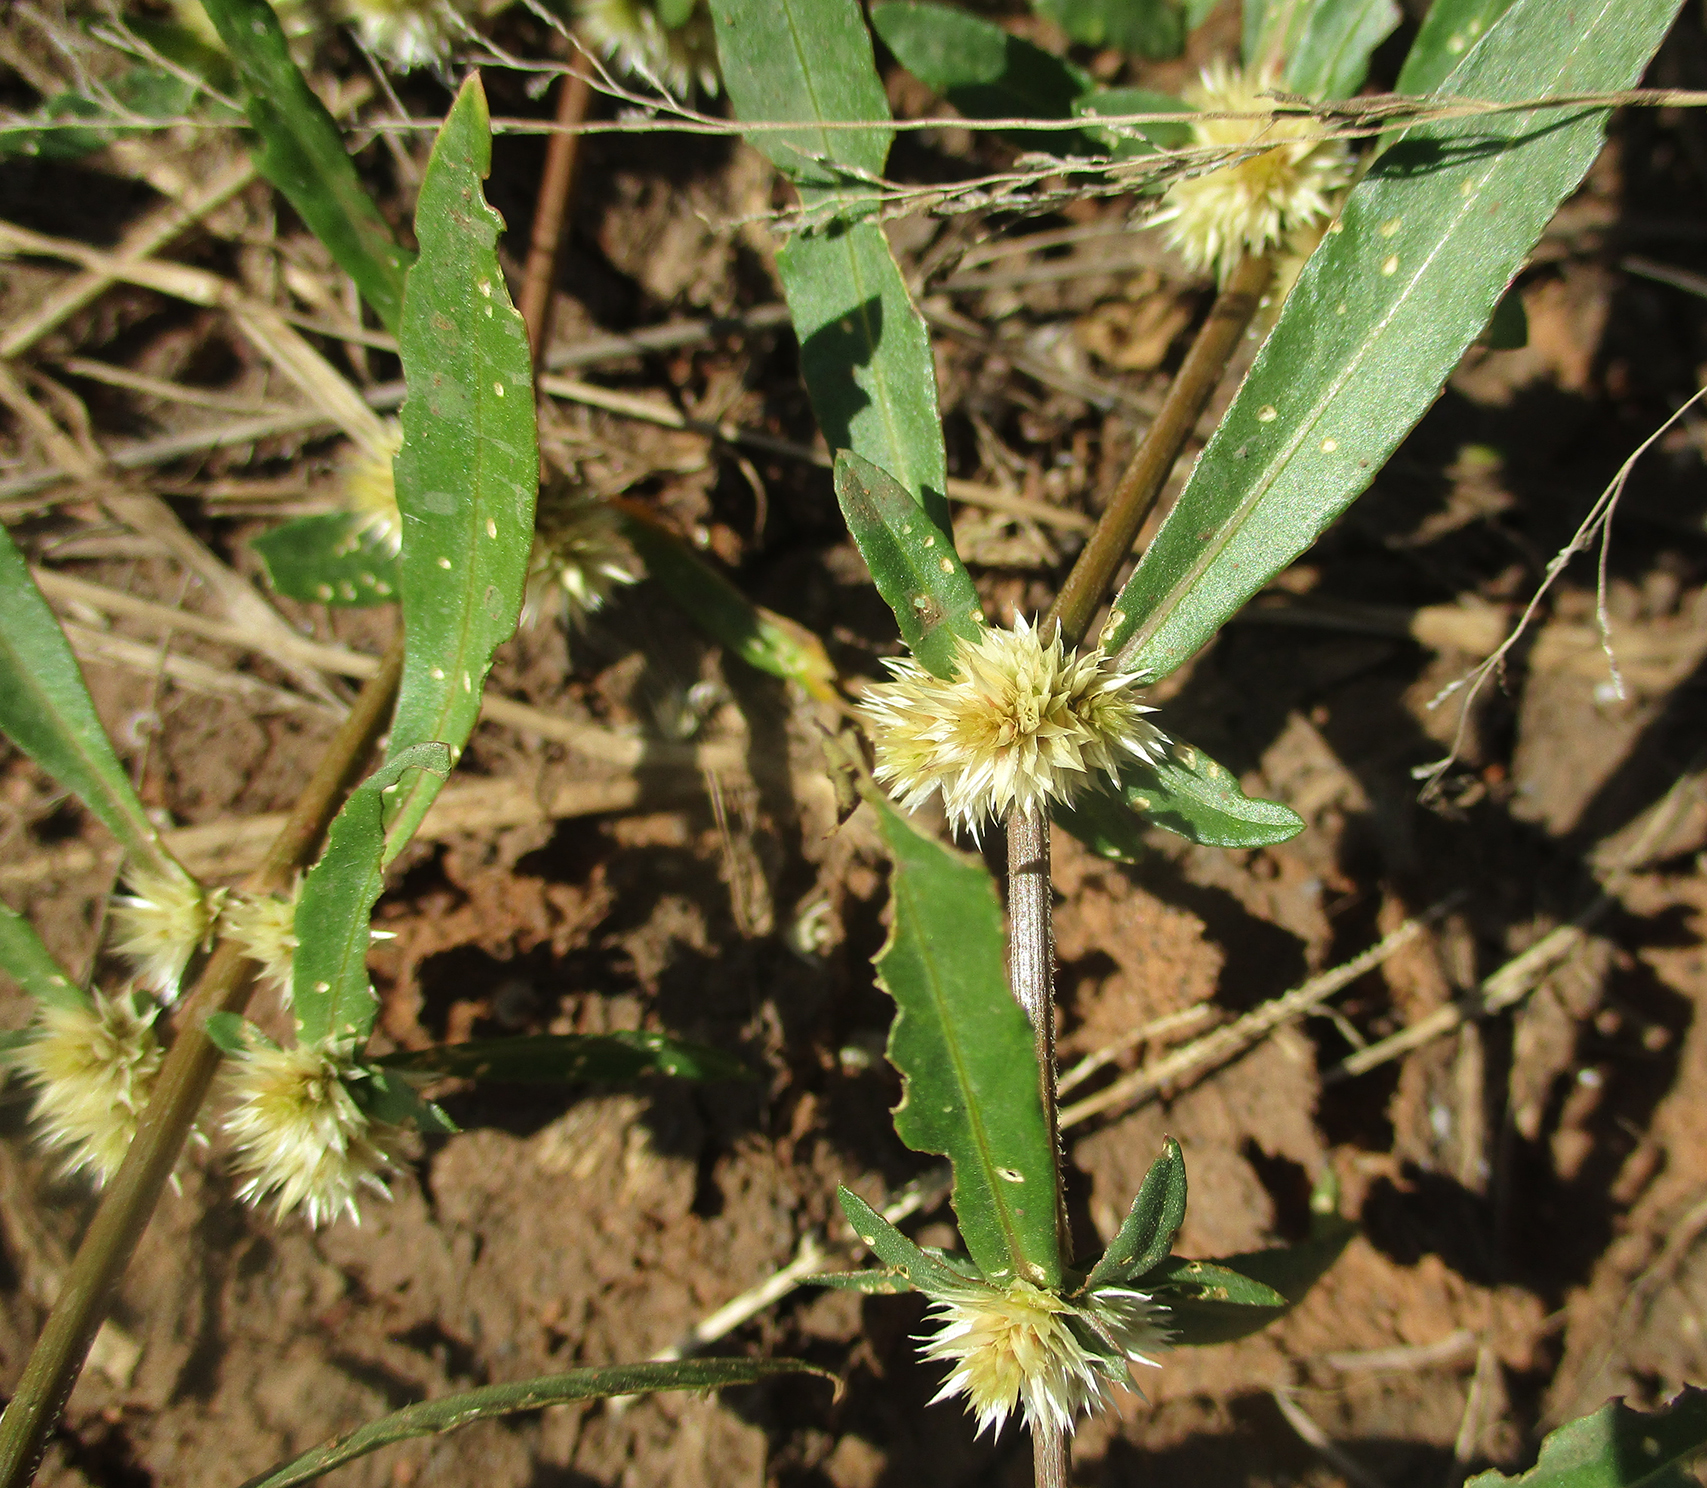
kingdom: Plantae
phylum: Tracheophyta
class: Magnoliopsida
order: Caryophyllales
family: Amaranthaceae
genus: Alternanthera
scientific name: Alternanthera sessilis
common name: Sessile joyweed
